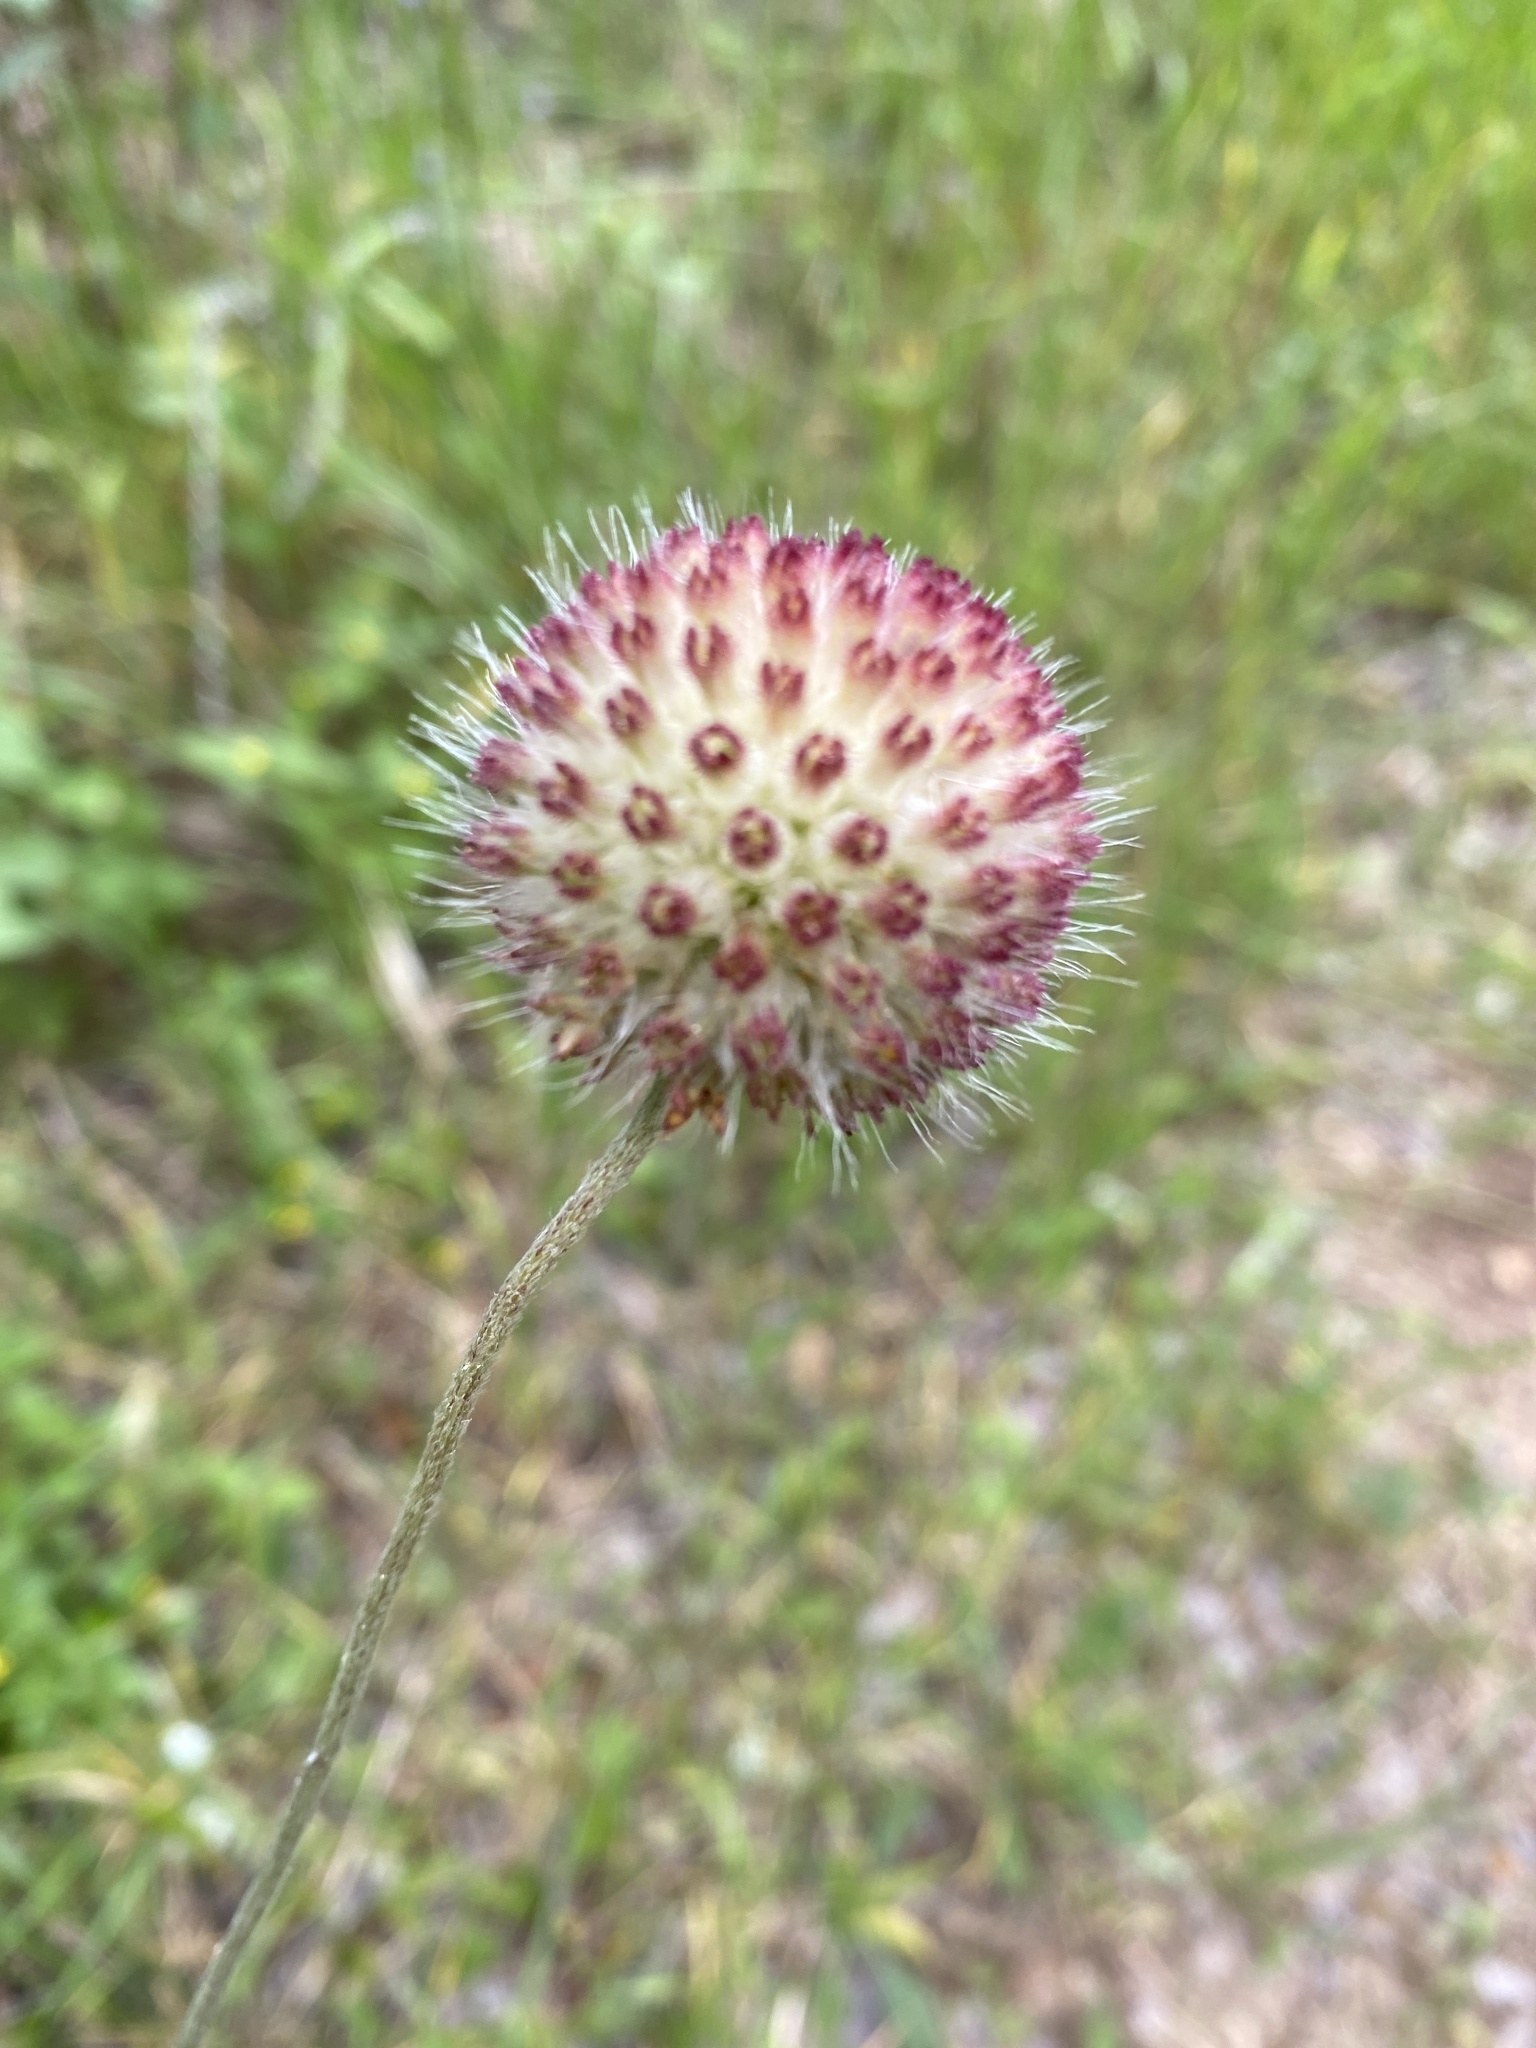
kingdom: Plantae
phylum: Tracheophyta
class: Magnoliopsida
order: Asterales
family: Asteraceae
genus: Gaillardia
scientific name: Gaillardia suavis
